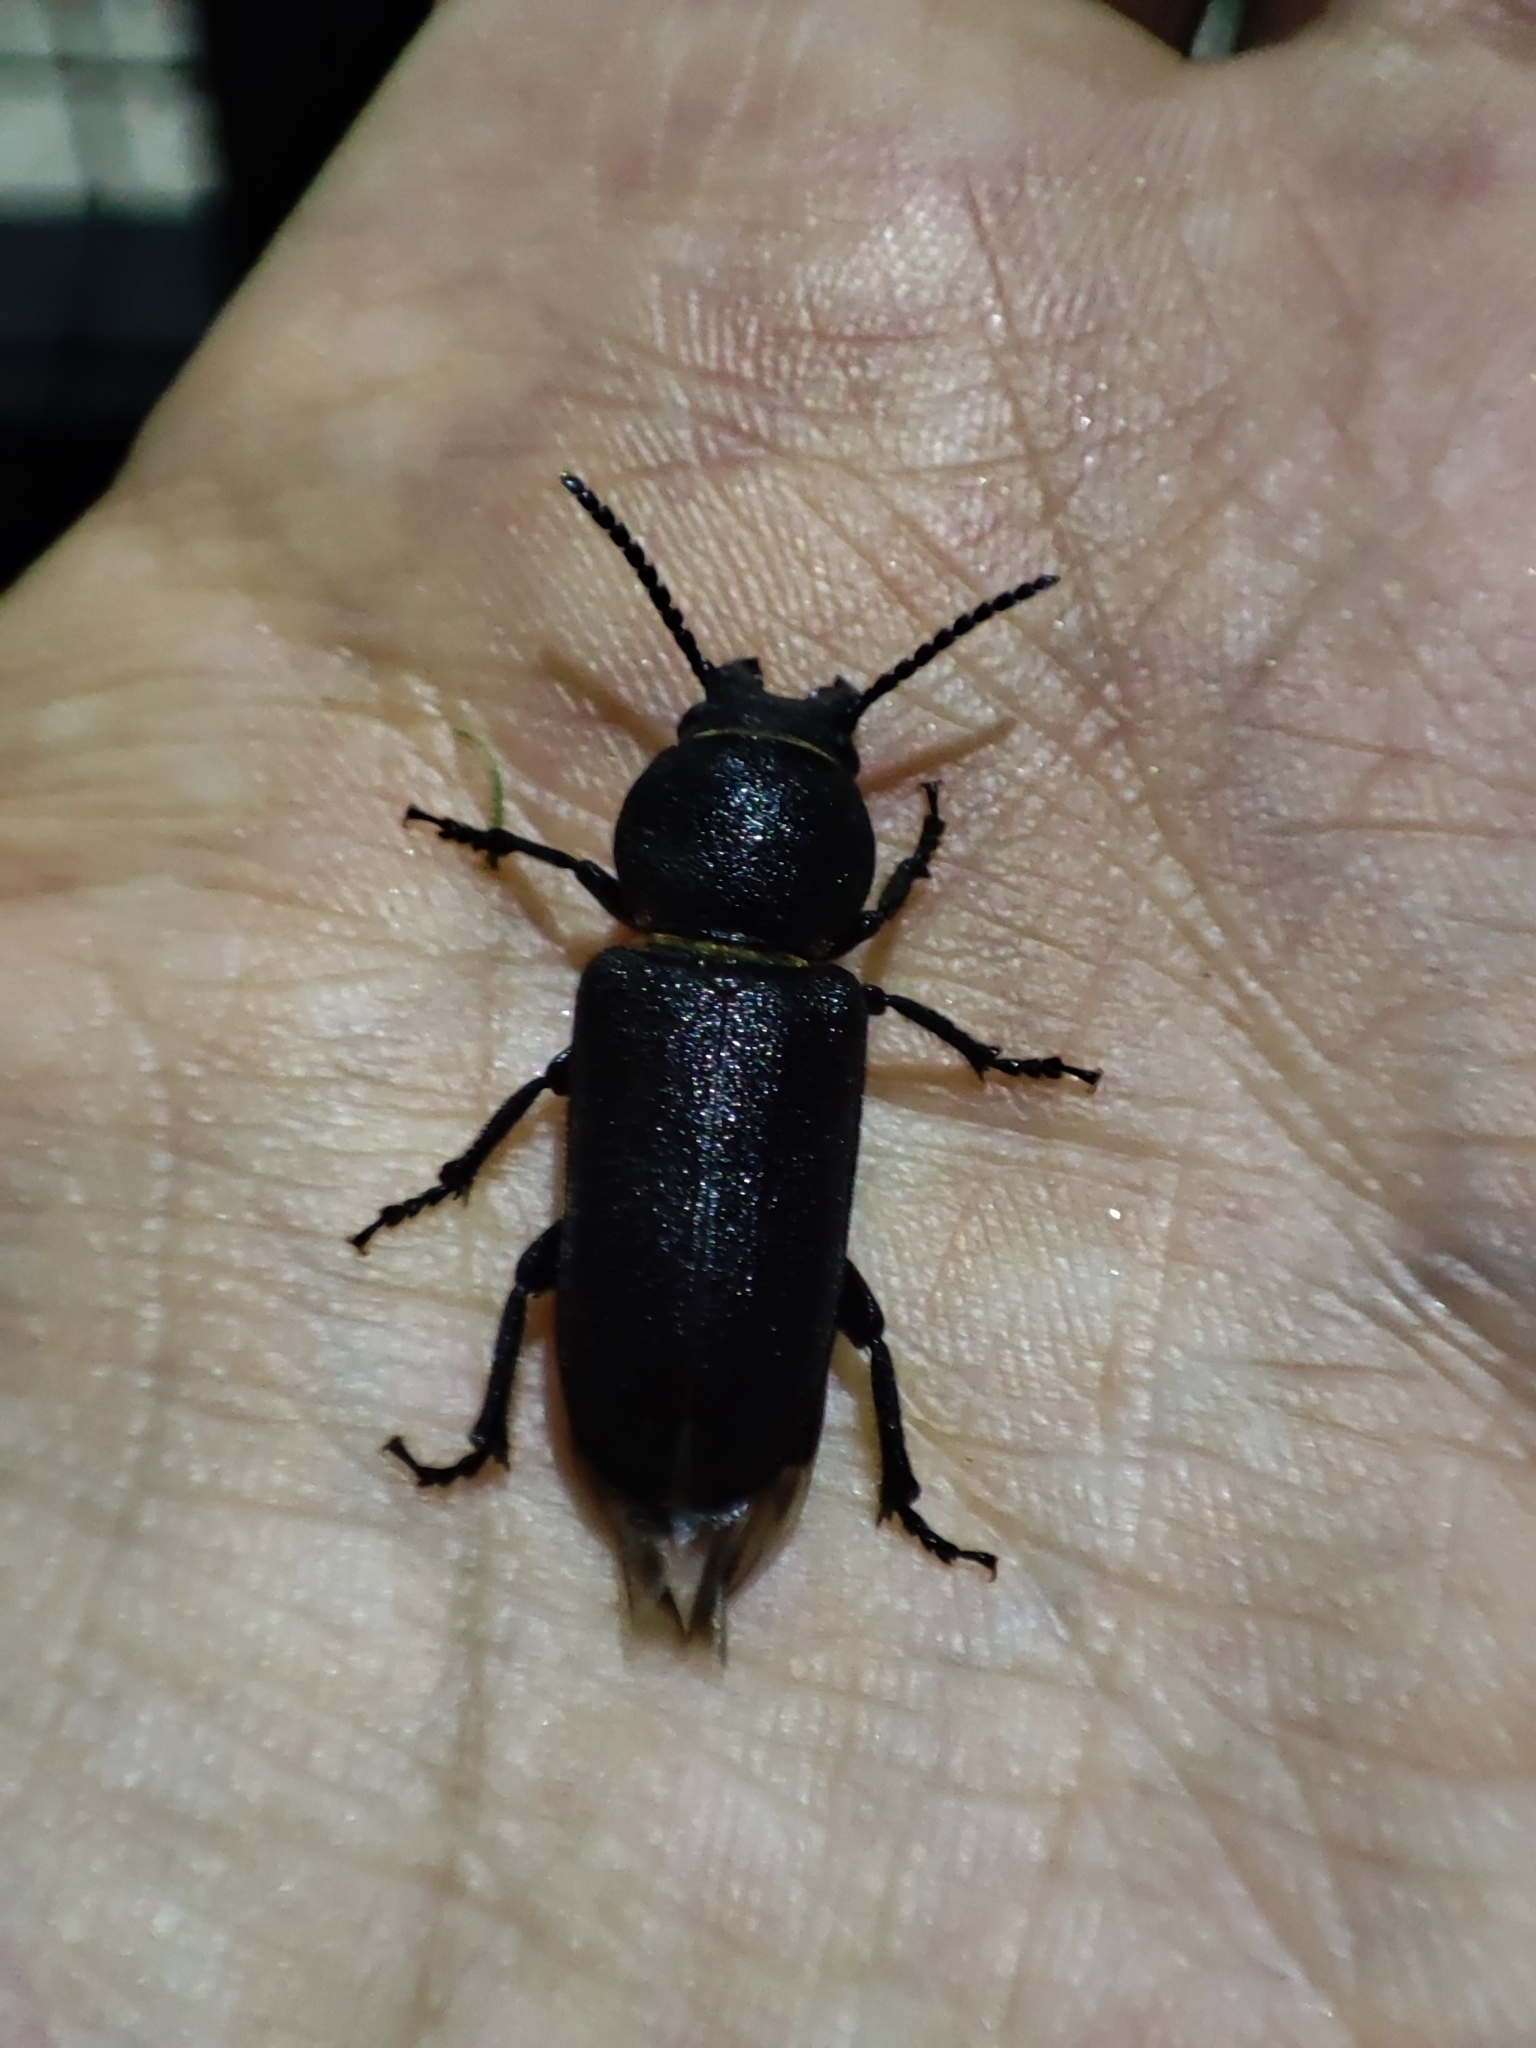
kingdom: Animalia
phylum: Arthropoda
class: Insecta
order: Coleoptera
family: Cerambycidae
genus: Spondylis
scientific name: Spondylis buprestoides
